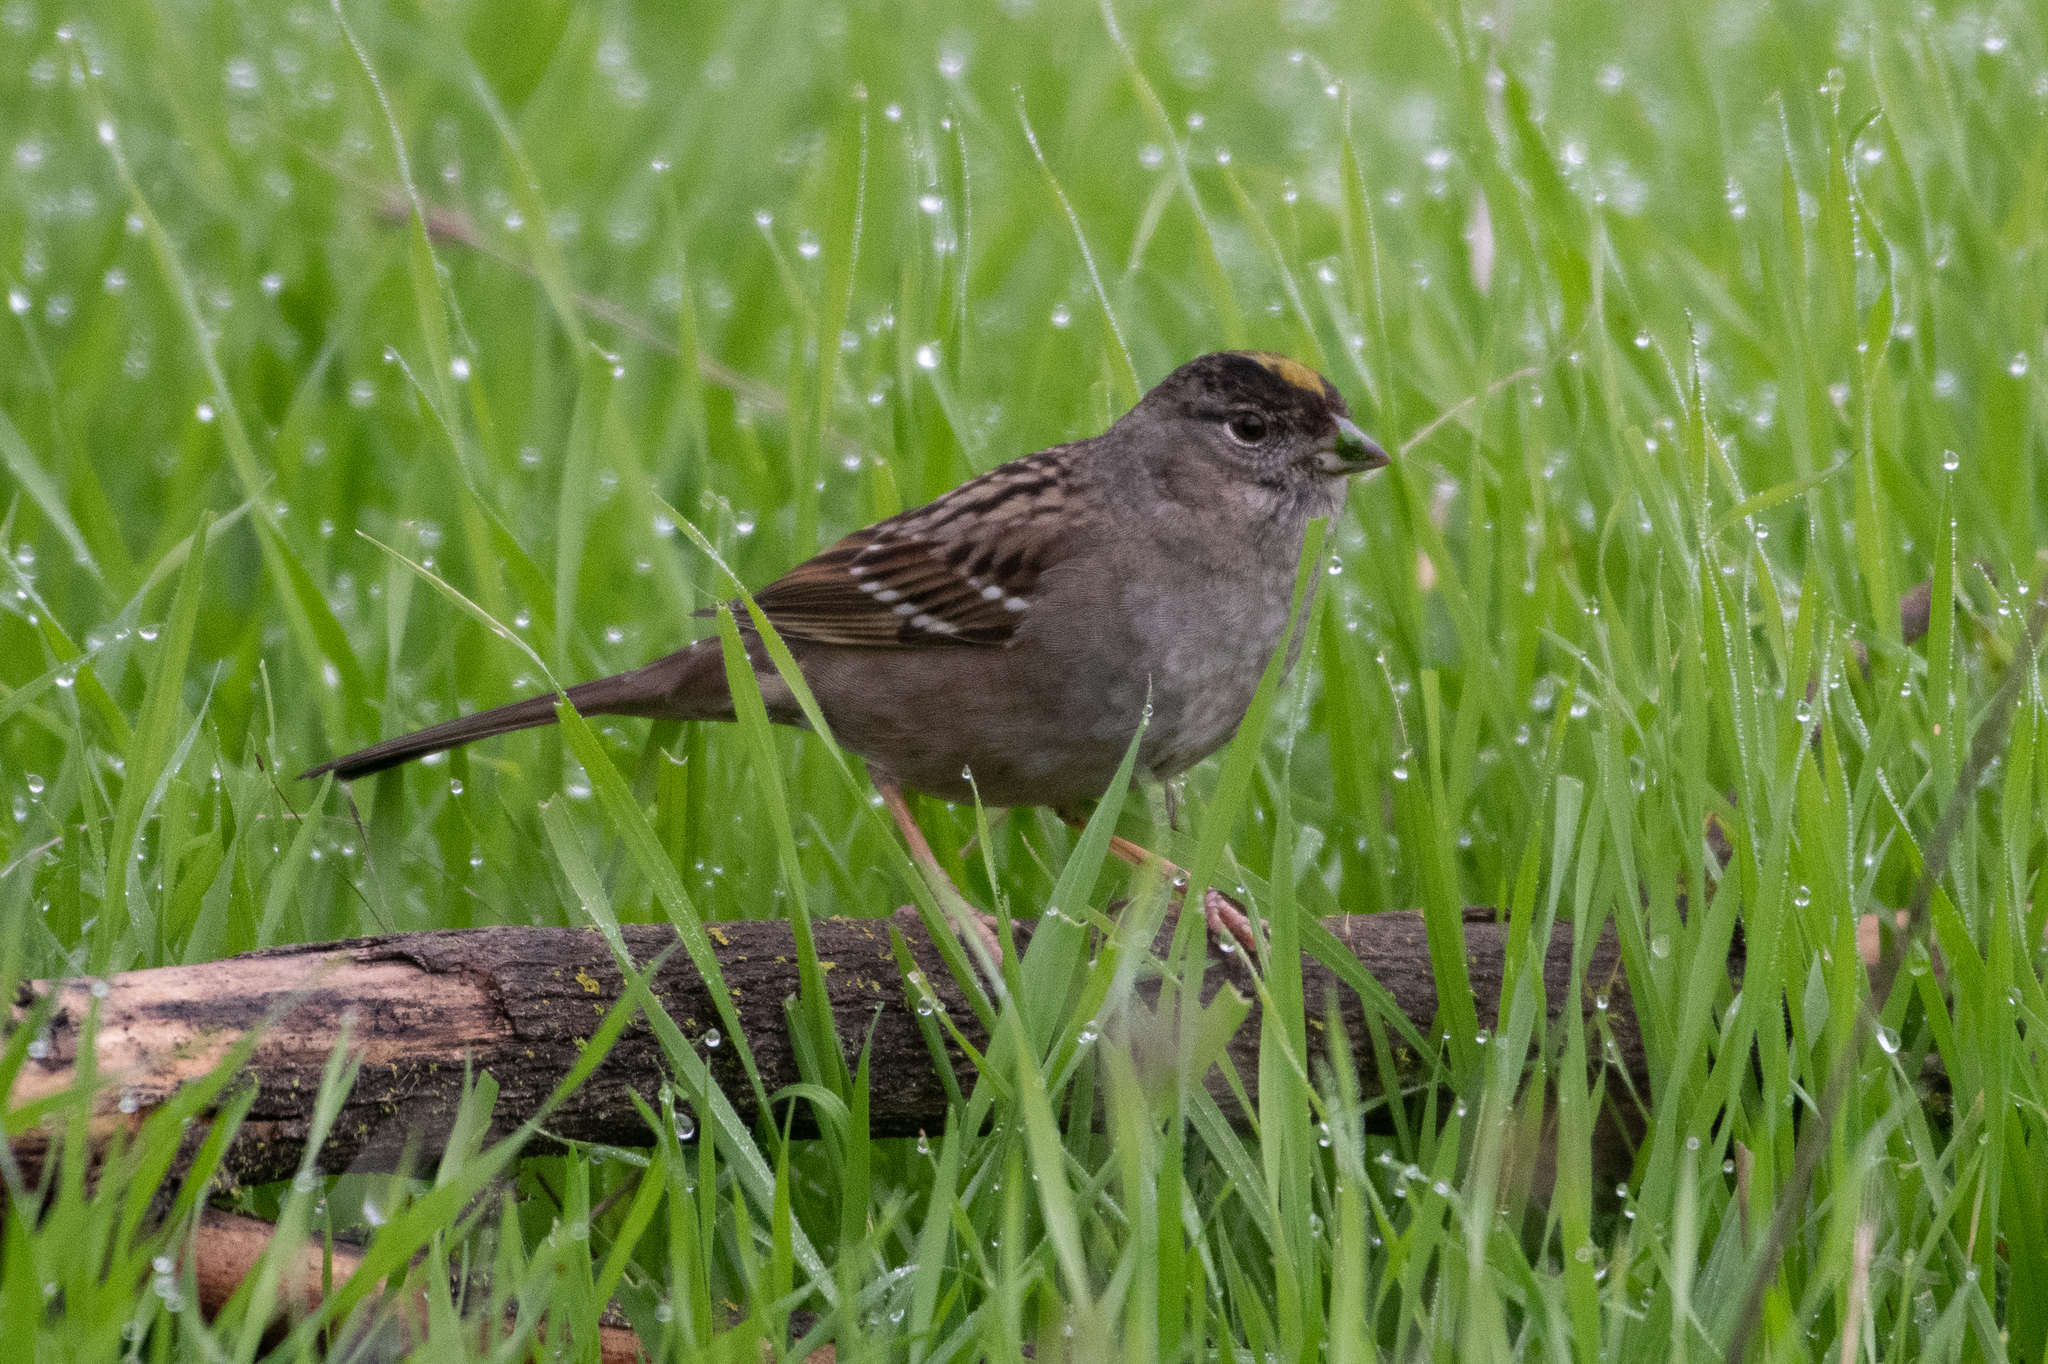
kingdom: Animalia
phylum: Chordata
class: Aves
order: Passeriformes
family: Passerellidae
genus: Zonotrichia
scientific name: Zonotrichia atricapilla
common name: Golden-crowned sparrow
